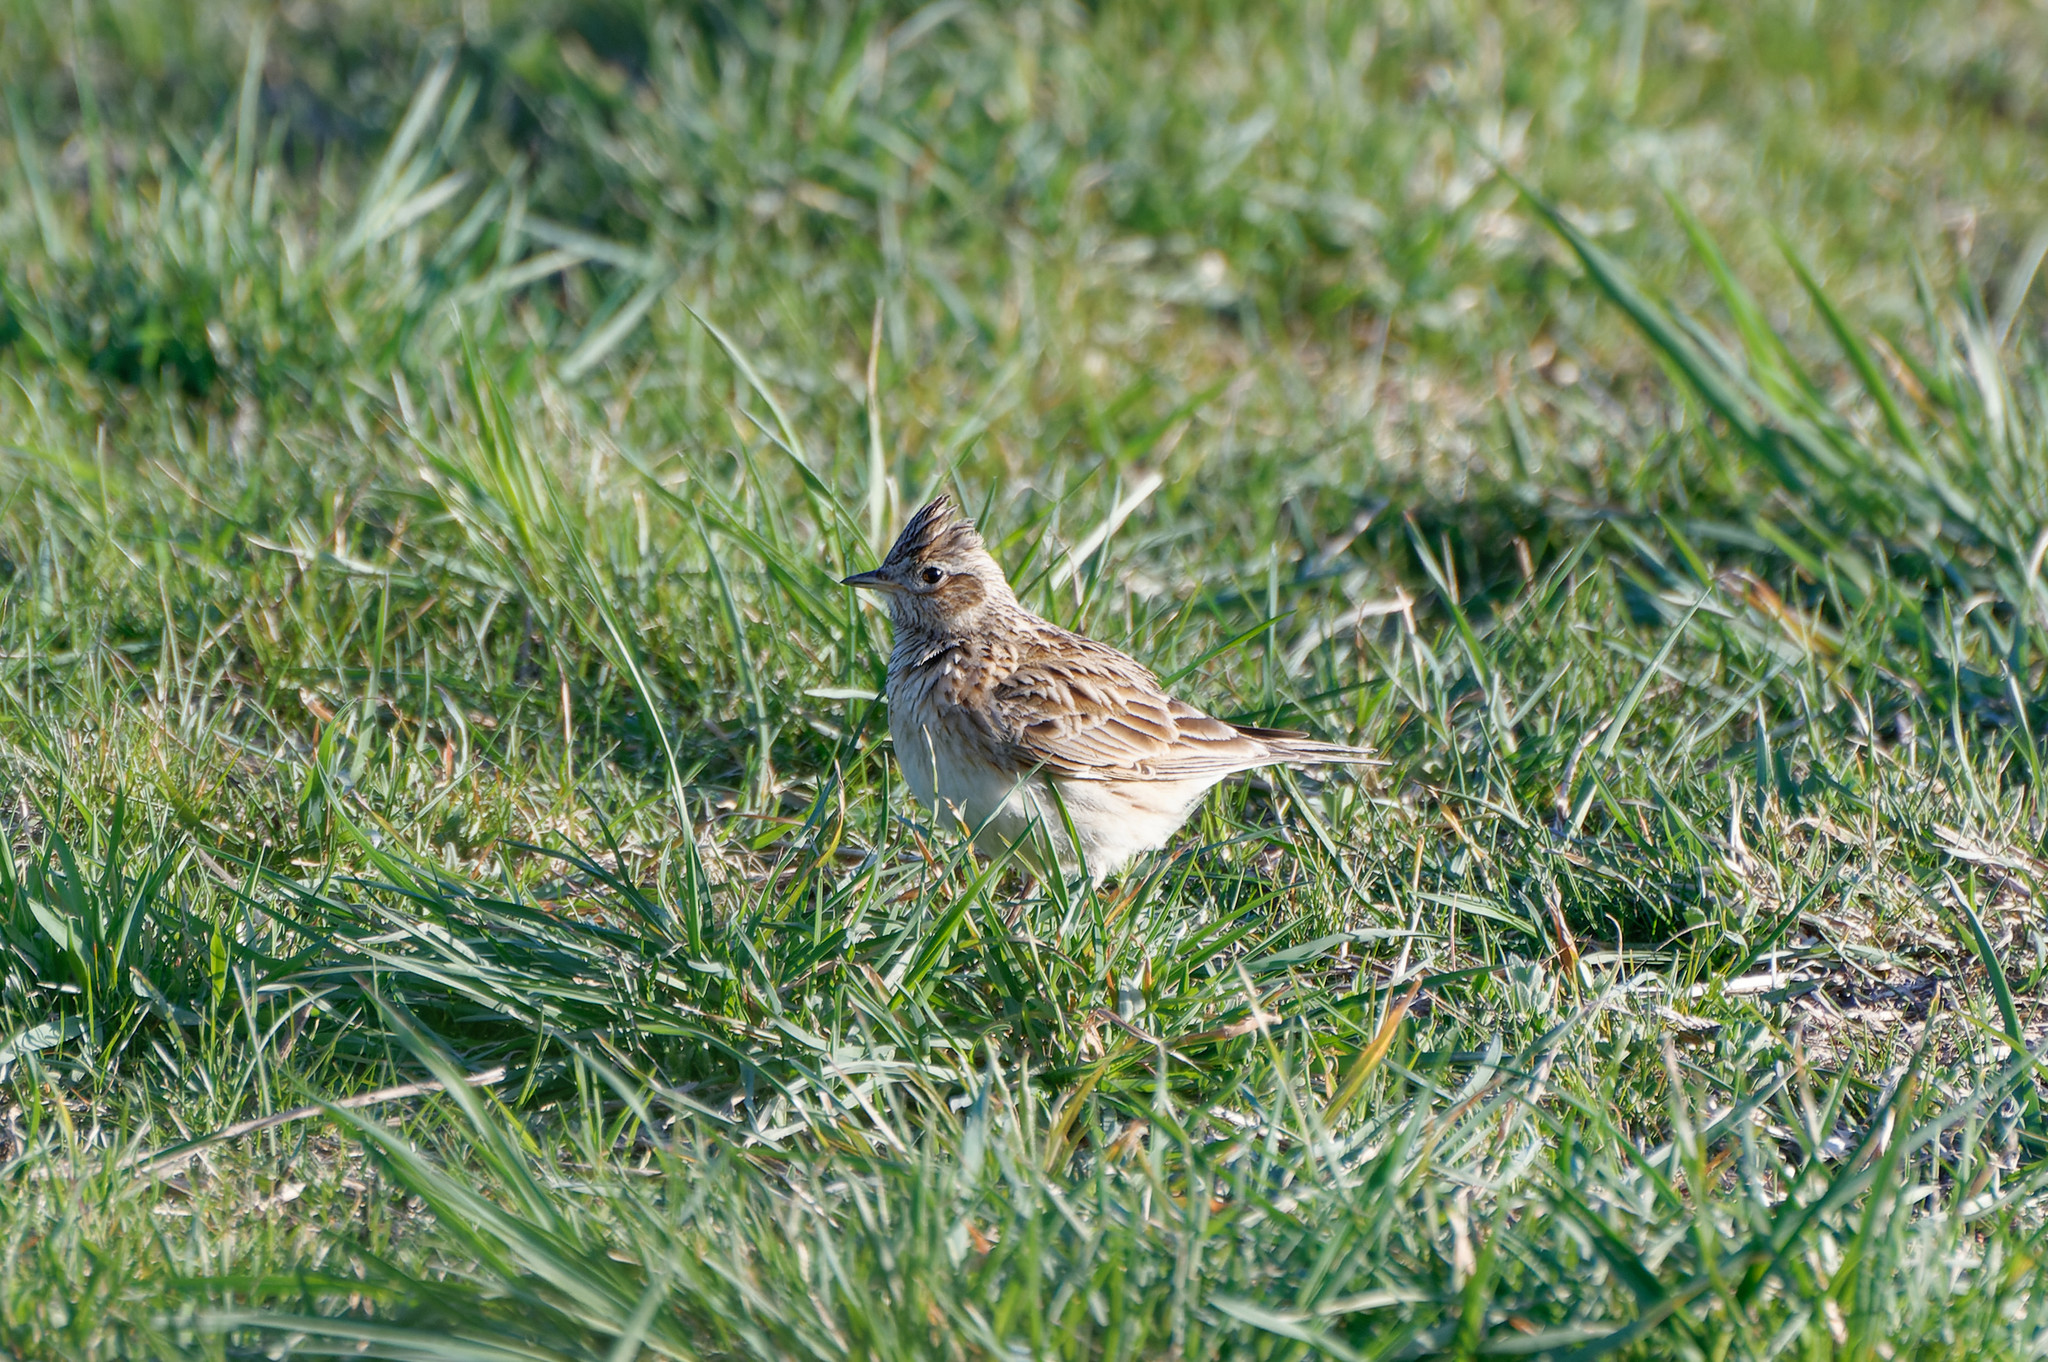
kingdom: Animalia
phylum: Chordata
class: Aves
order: Passeriformes
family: Alaudidae
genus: Alauda
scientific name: Alauda arvensis
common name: Eurasian skylark
